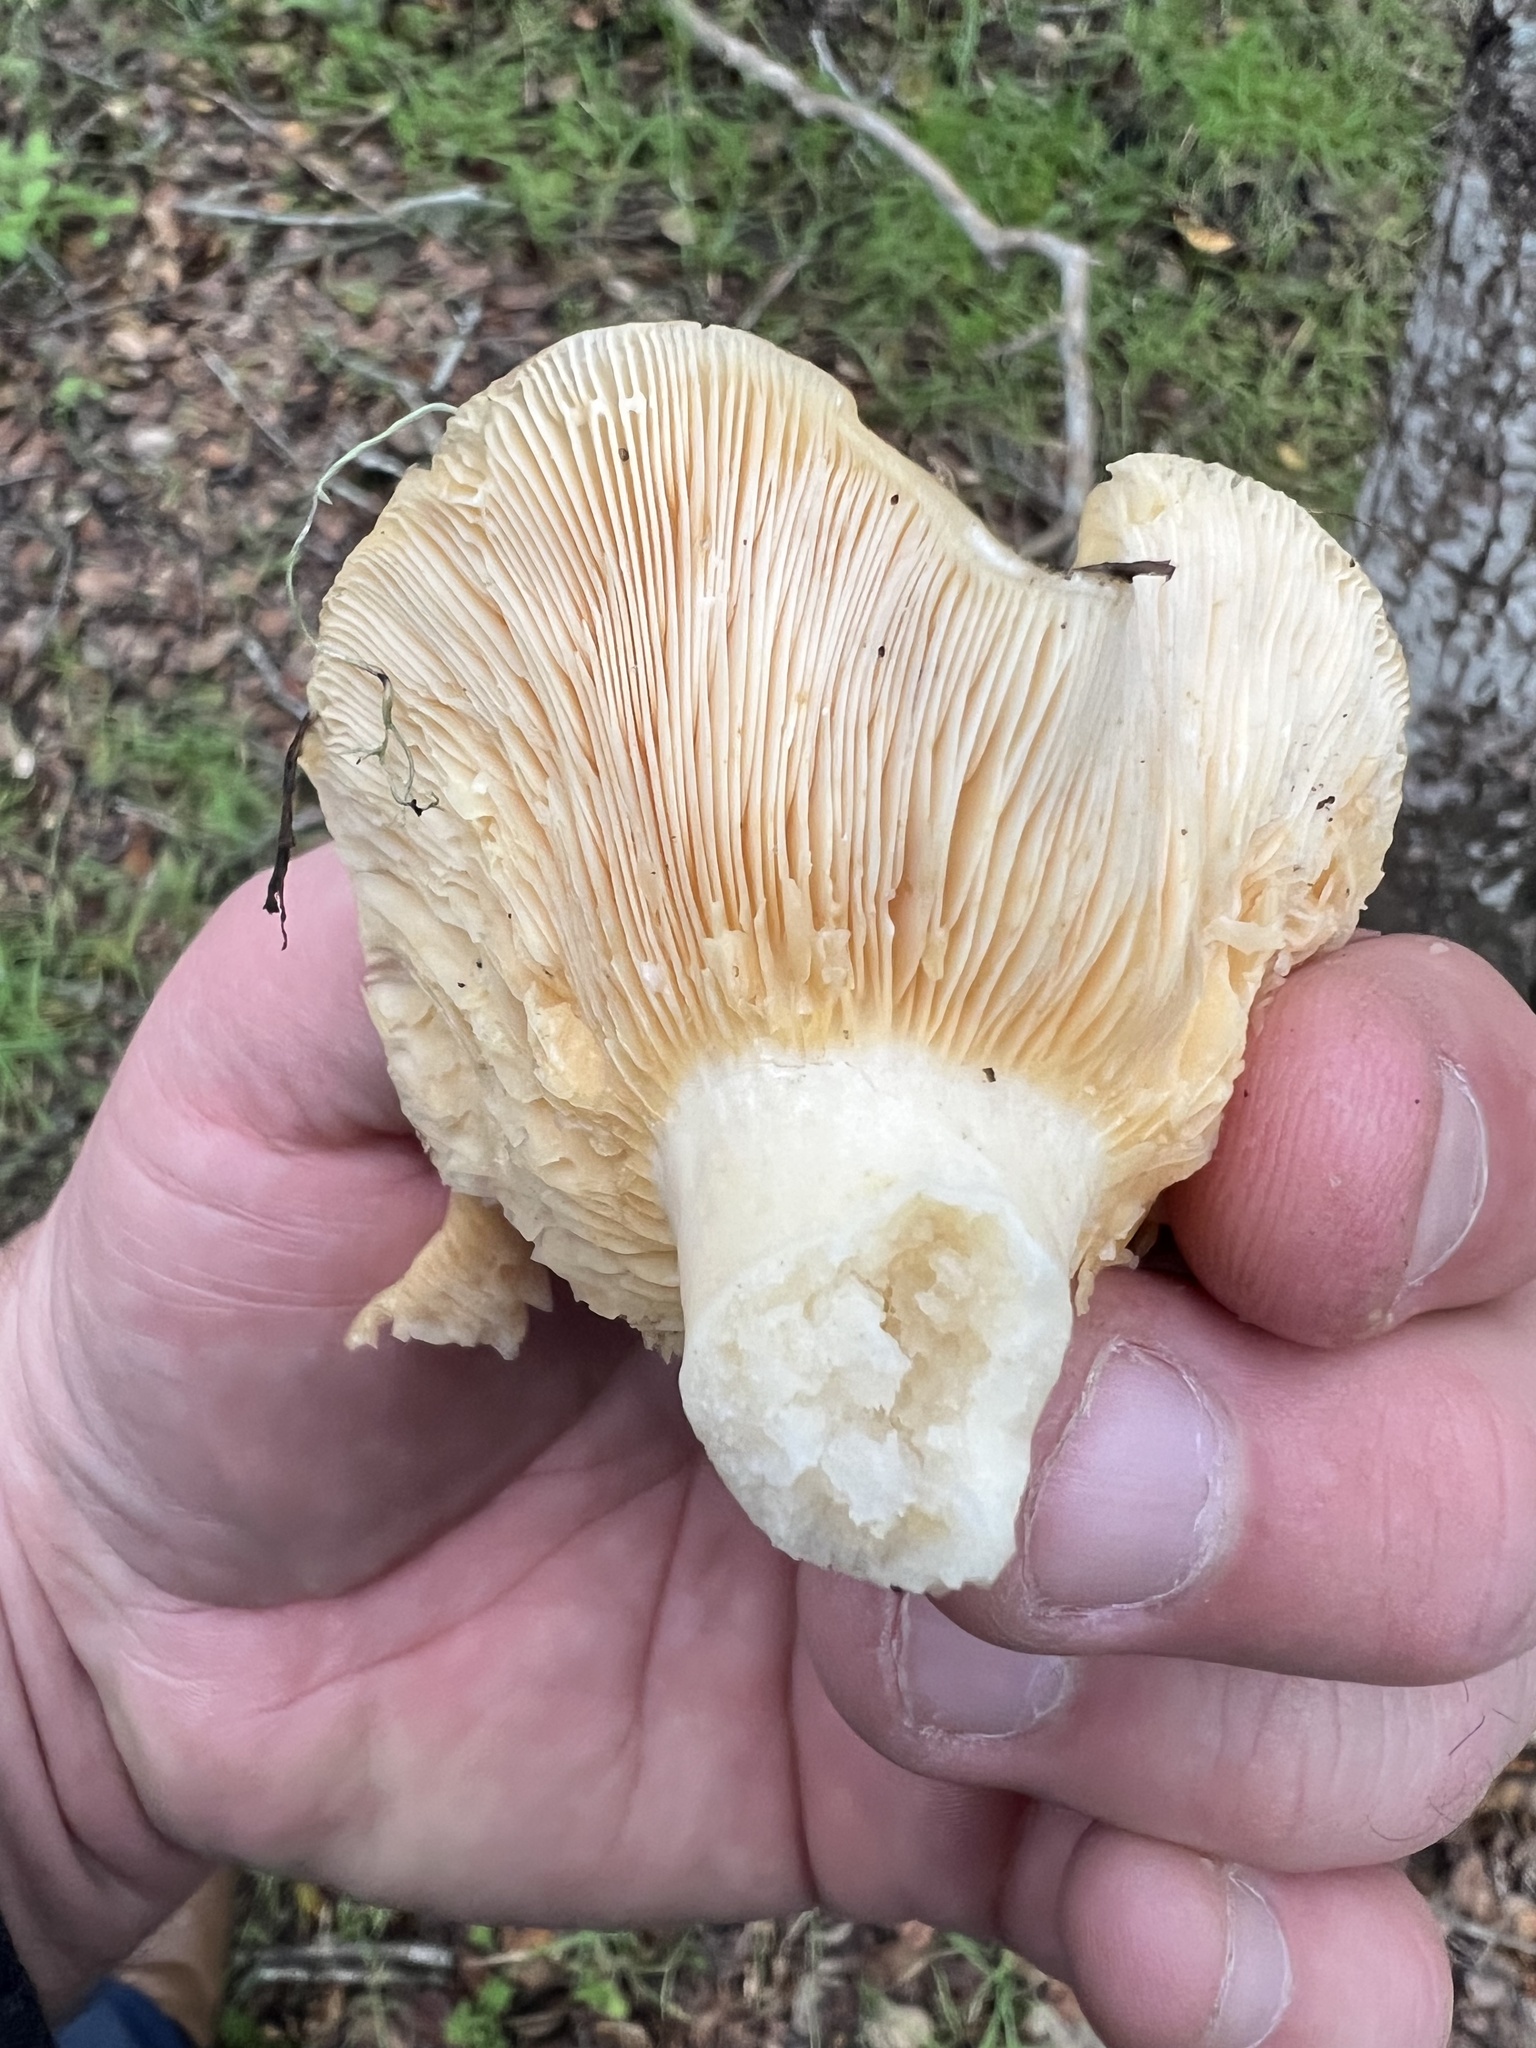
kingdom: Fungi
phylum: Basidiomycota
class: Agaricomycetes
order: Russulales
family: Russulaceae
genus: Lactarius
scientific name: Lactarius alnicola
